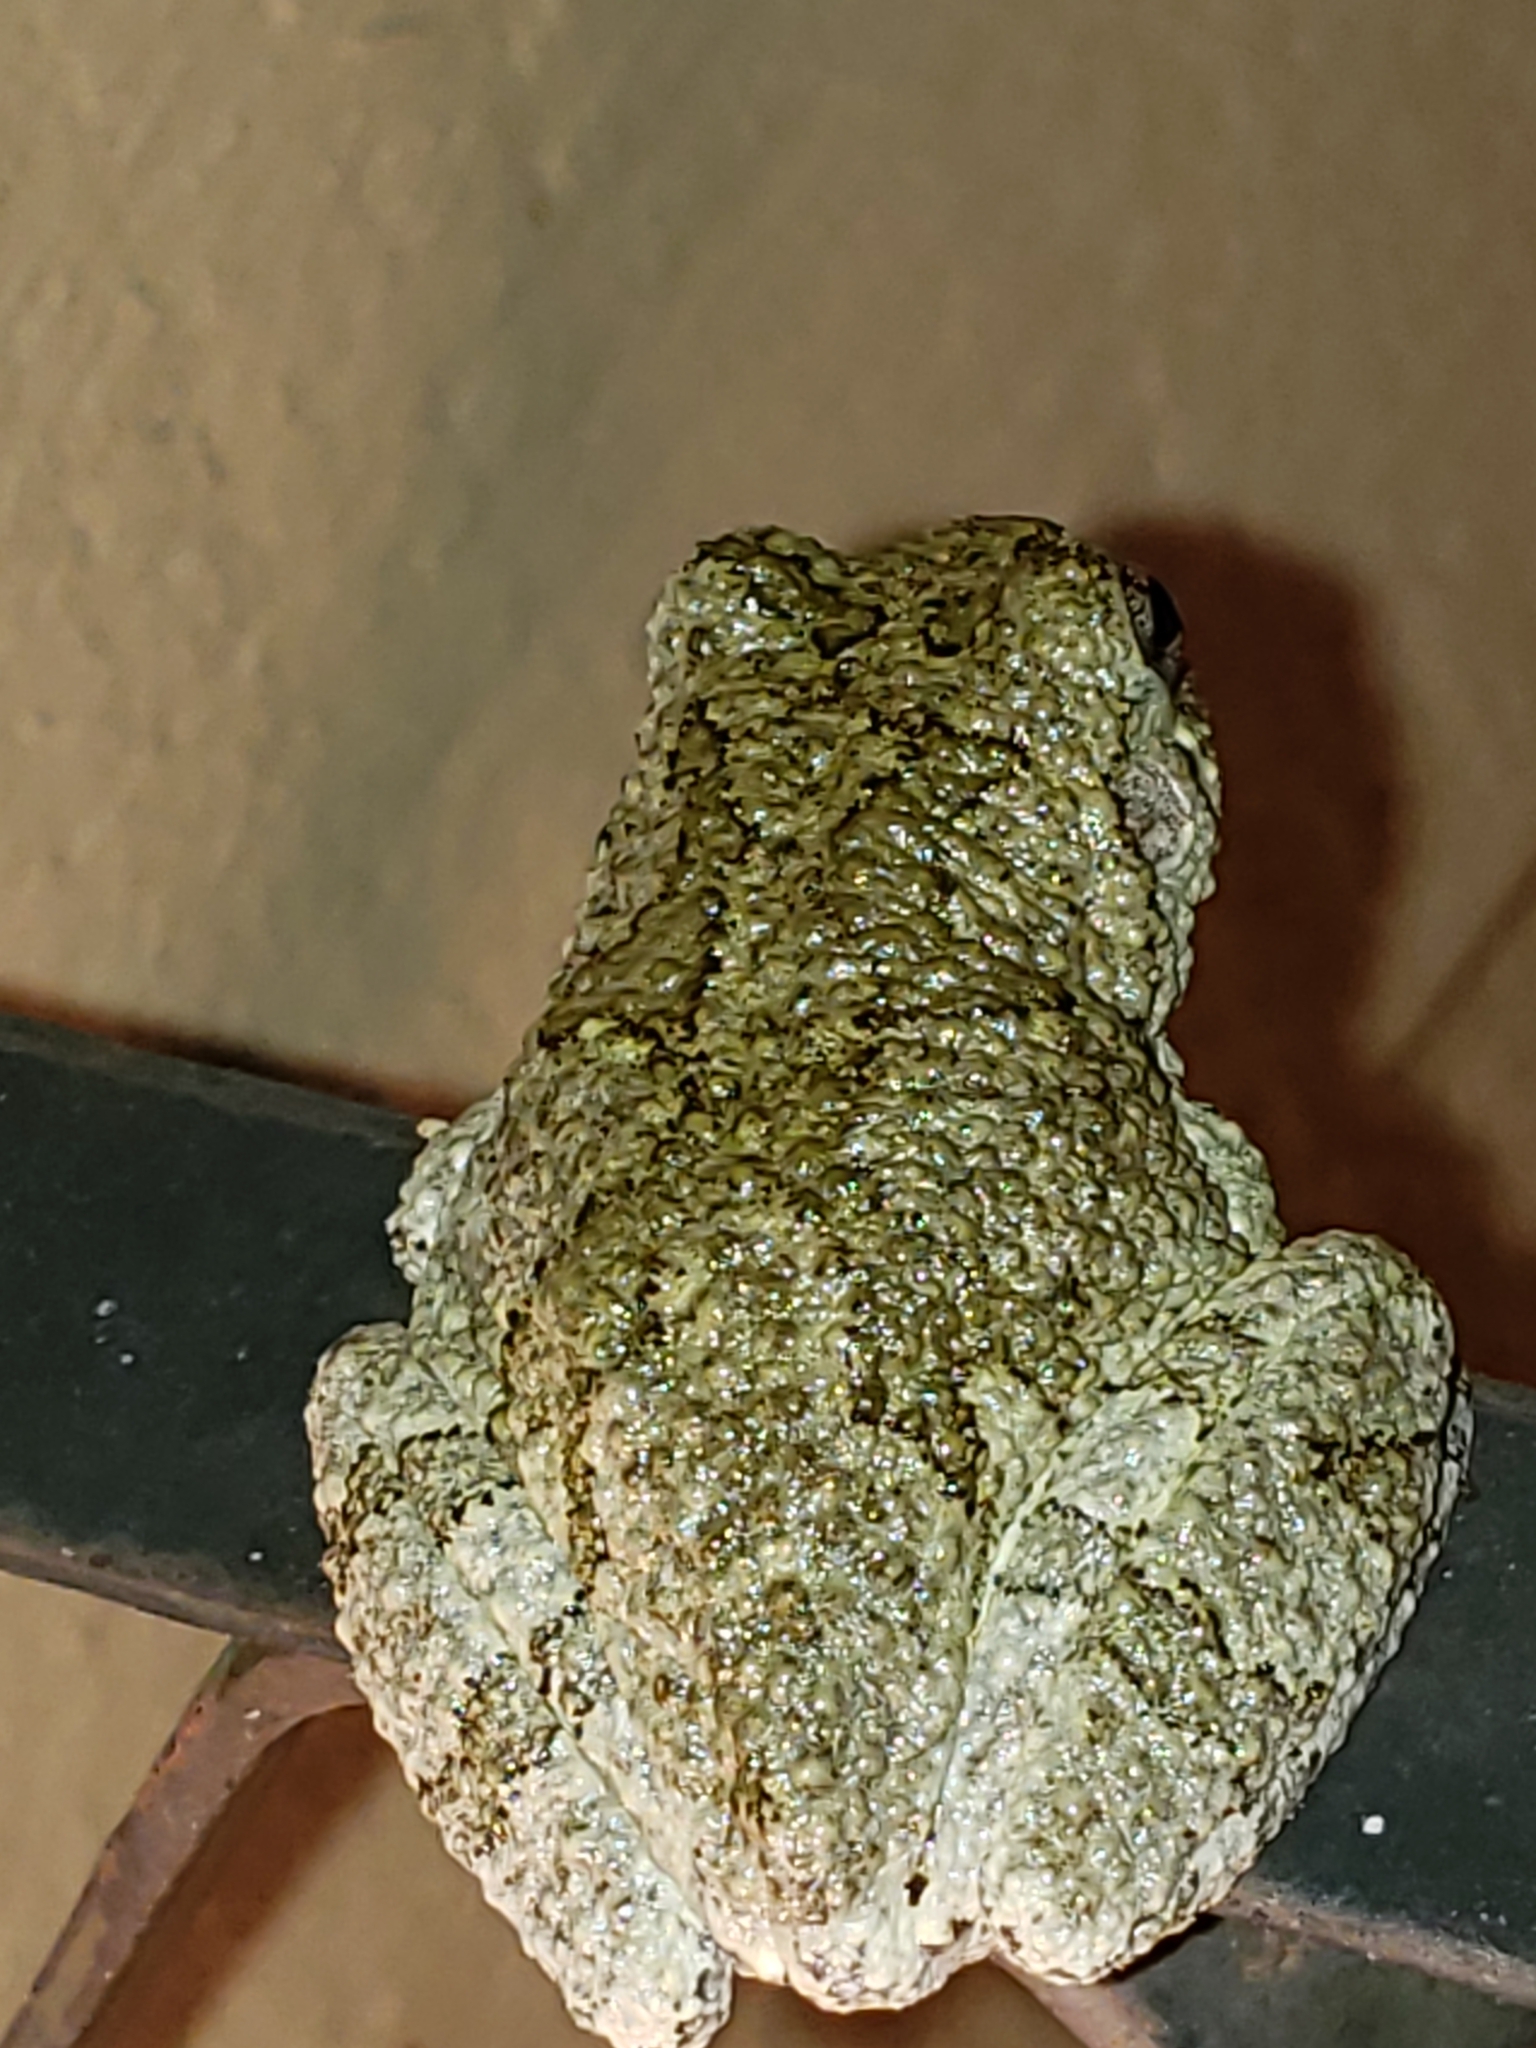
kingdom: Animalia
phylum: Chordata
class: Amphibia
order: Anura
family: Hylidae
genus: Hyla
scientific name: Hyla
